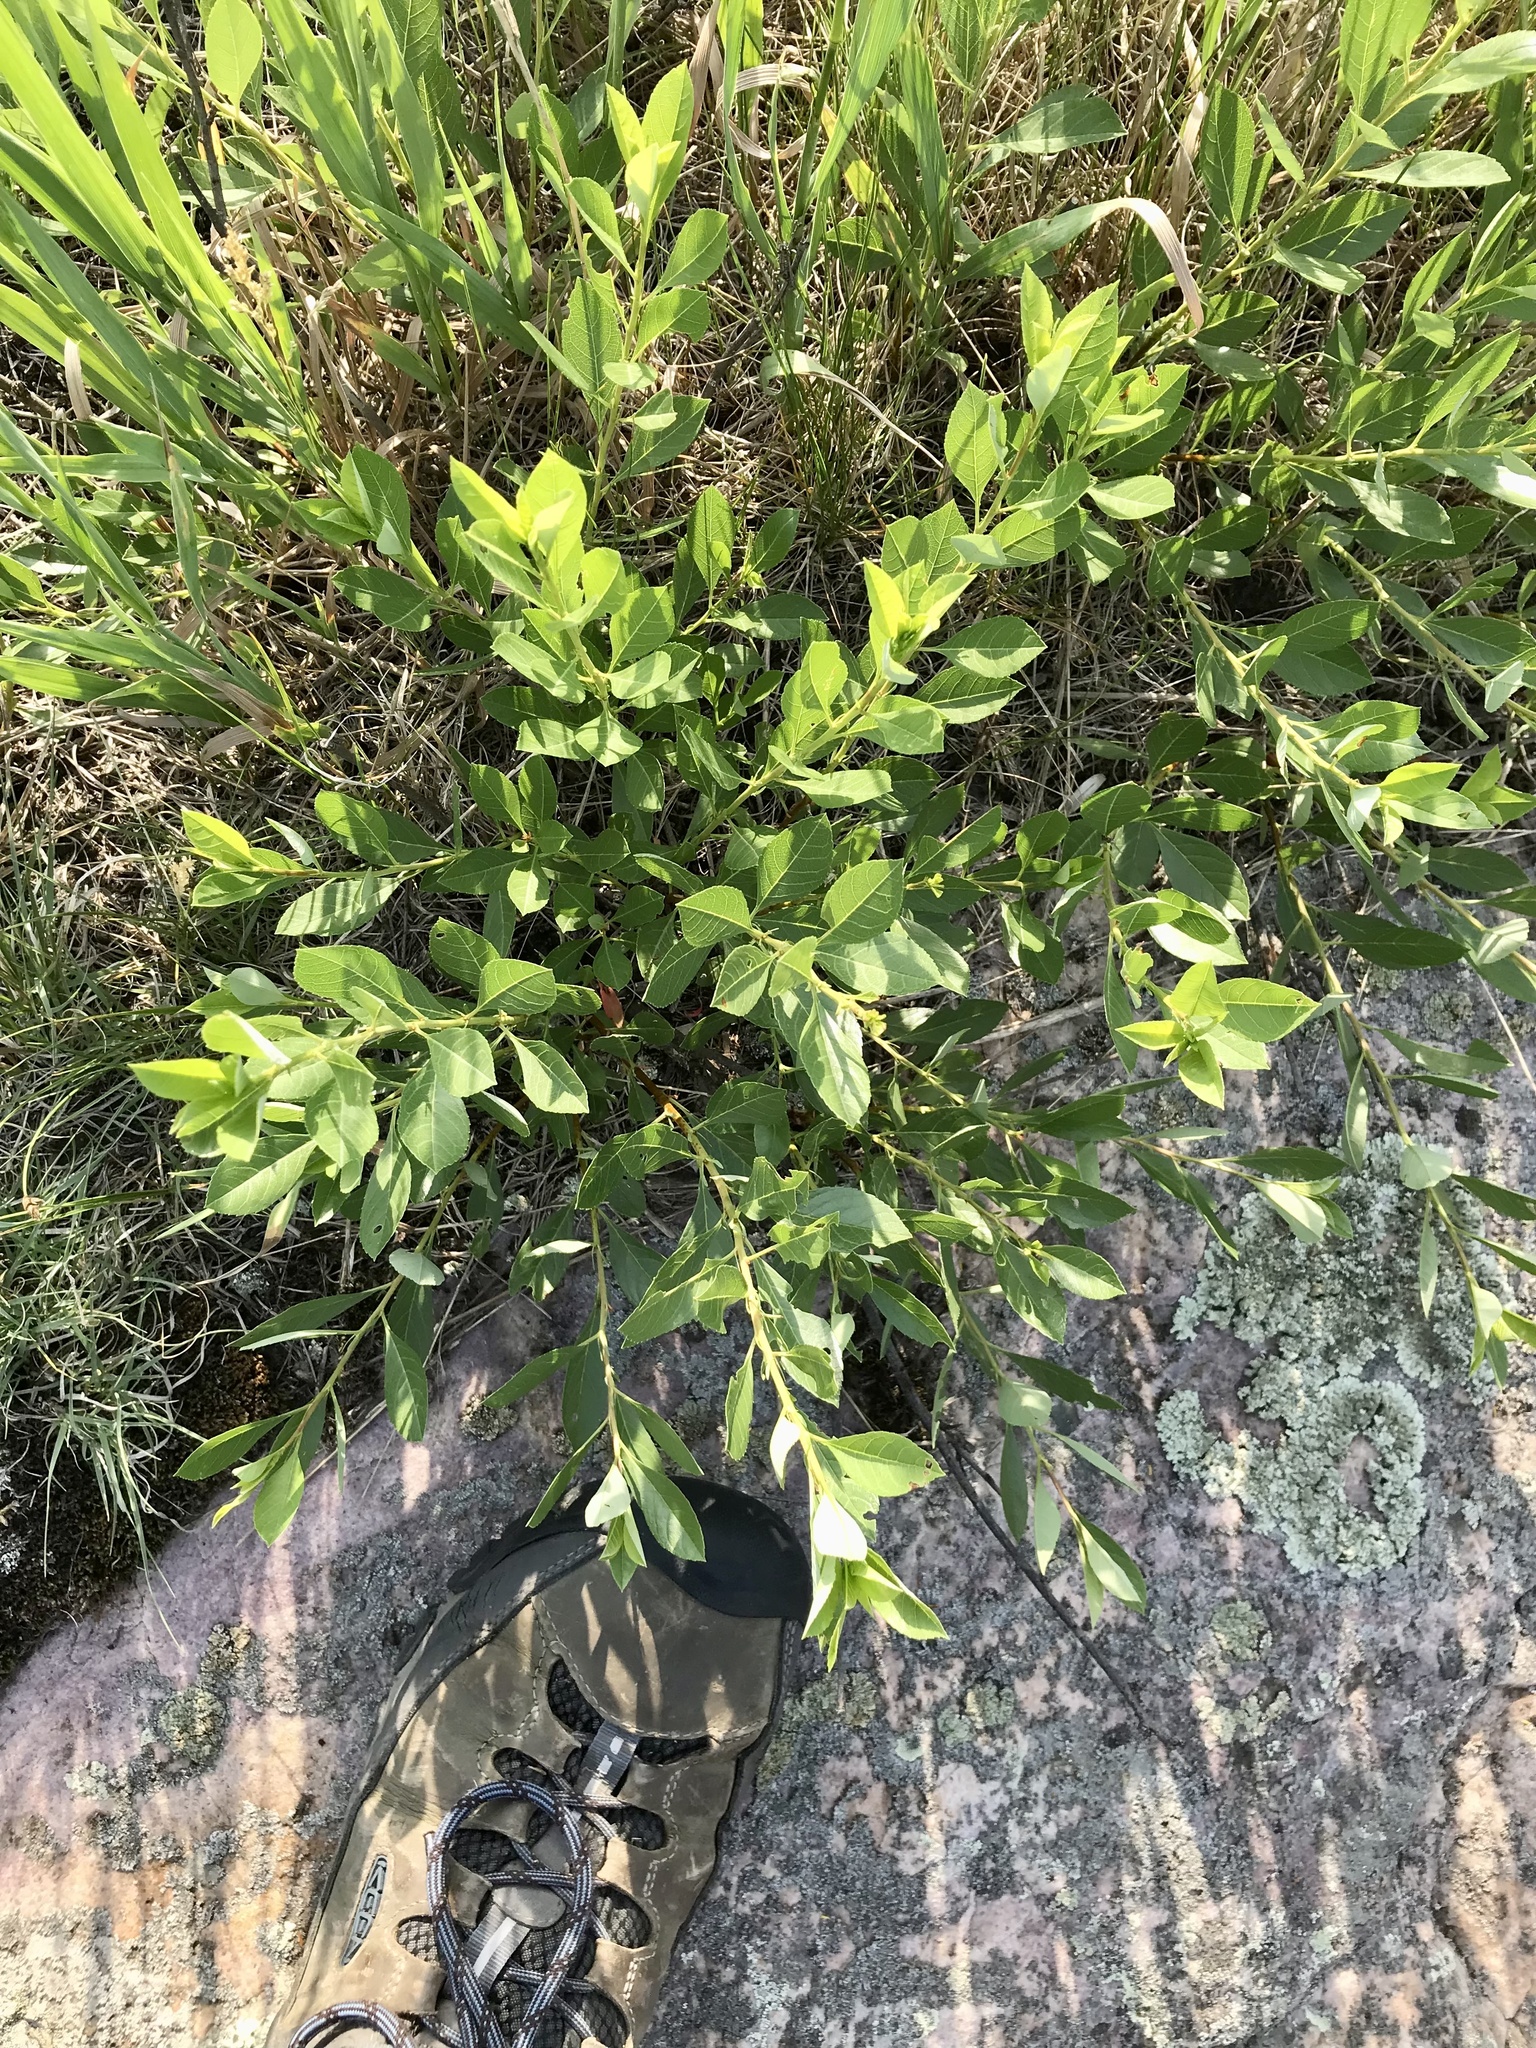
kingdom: Plantae
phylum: Tracheophyta
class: Magnoliopsida
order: Rosales
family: Rosaceae
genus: Prunus
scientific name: Prunus pumila
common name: Dwarf cherry
